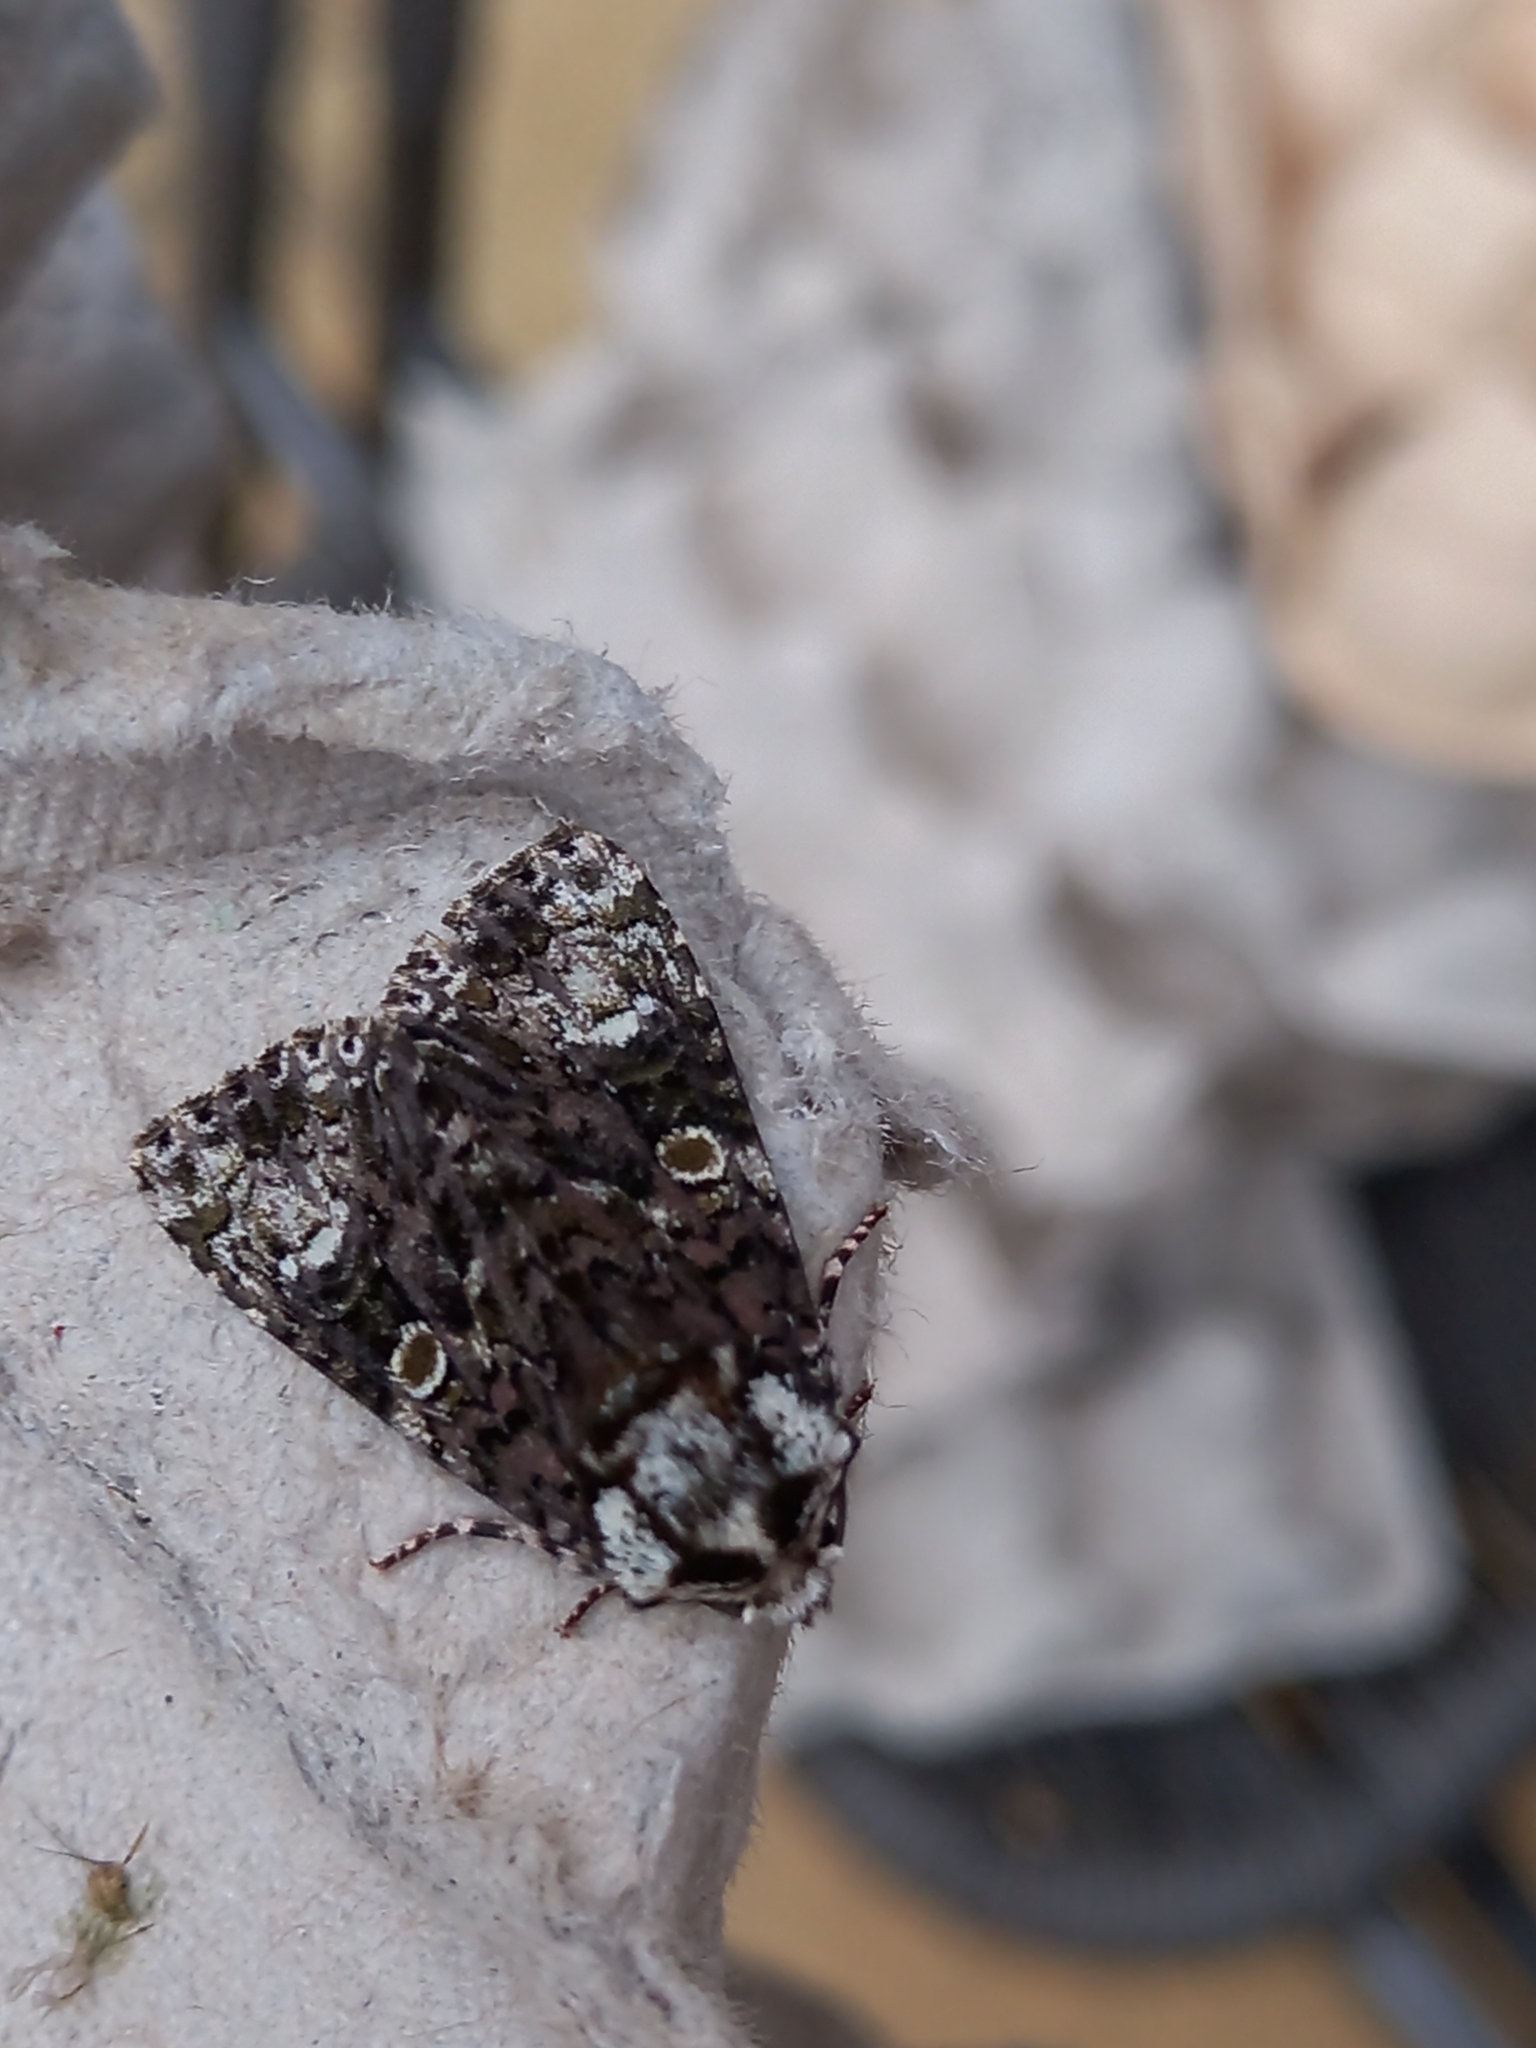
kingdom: Animalia
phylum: Arthropoda
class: Insecta
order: Lepidoptera
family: Noctuidae
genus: Craniophora
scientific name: Craniophora ligustri
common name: Coronet
